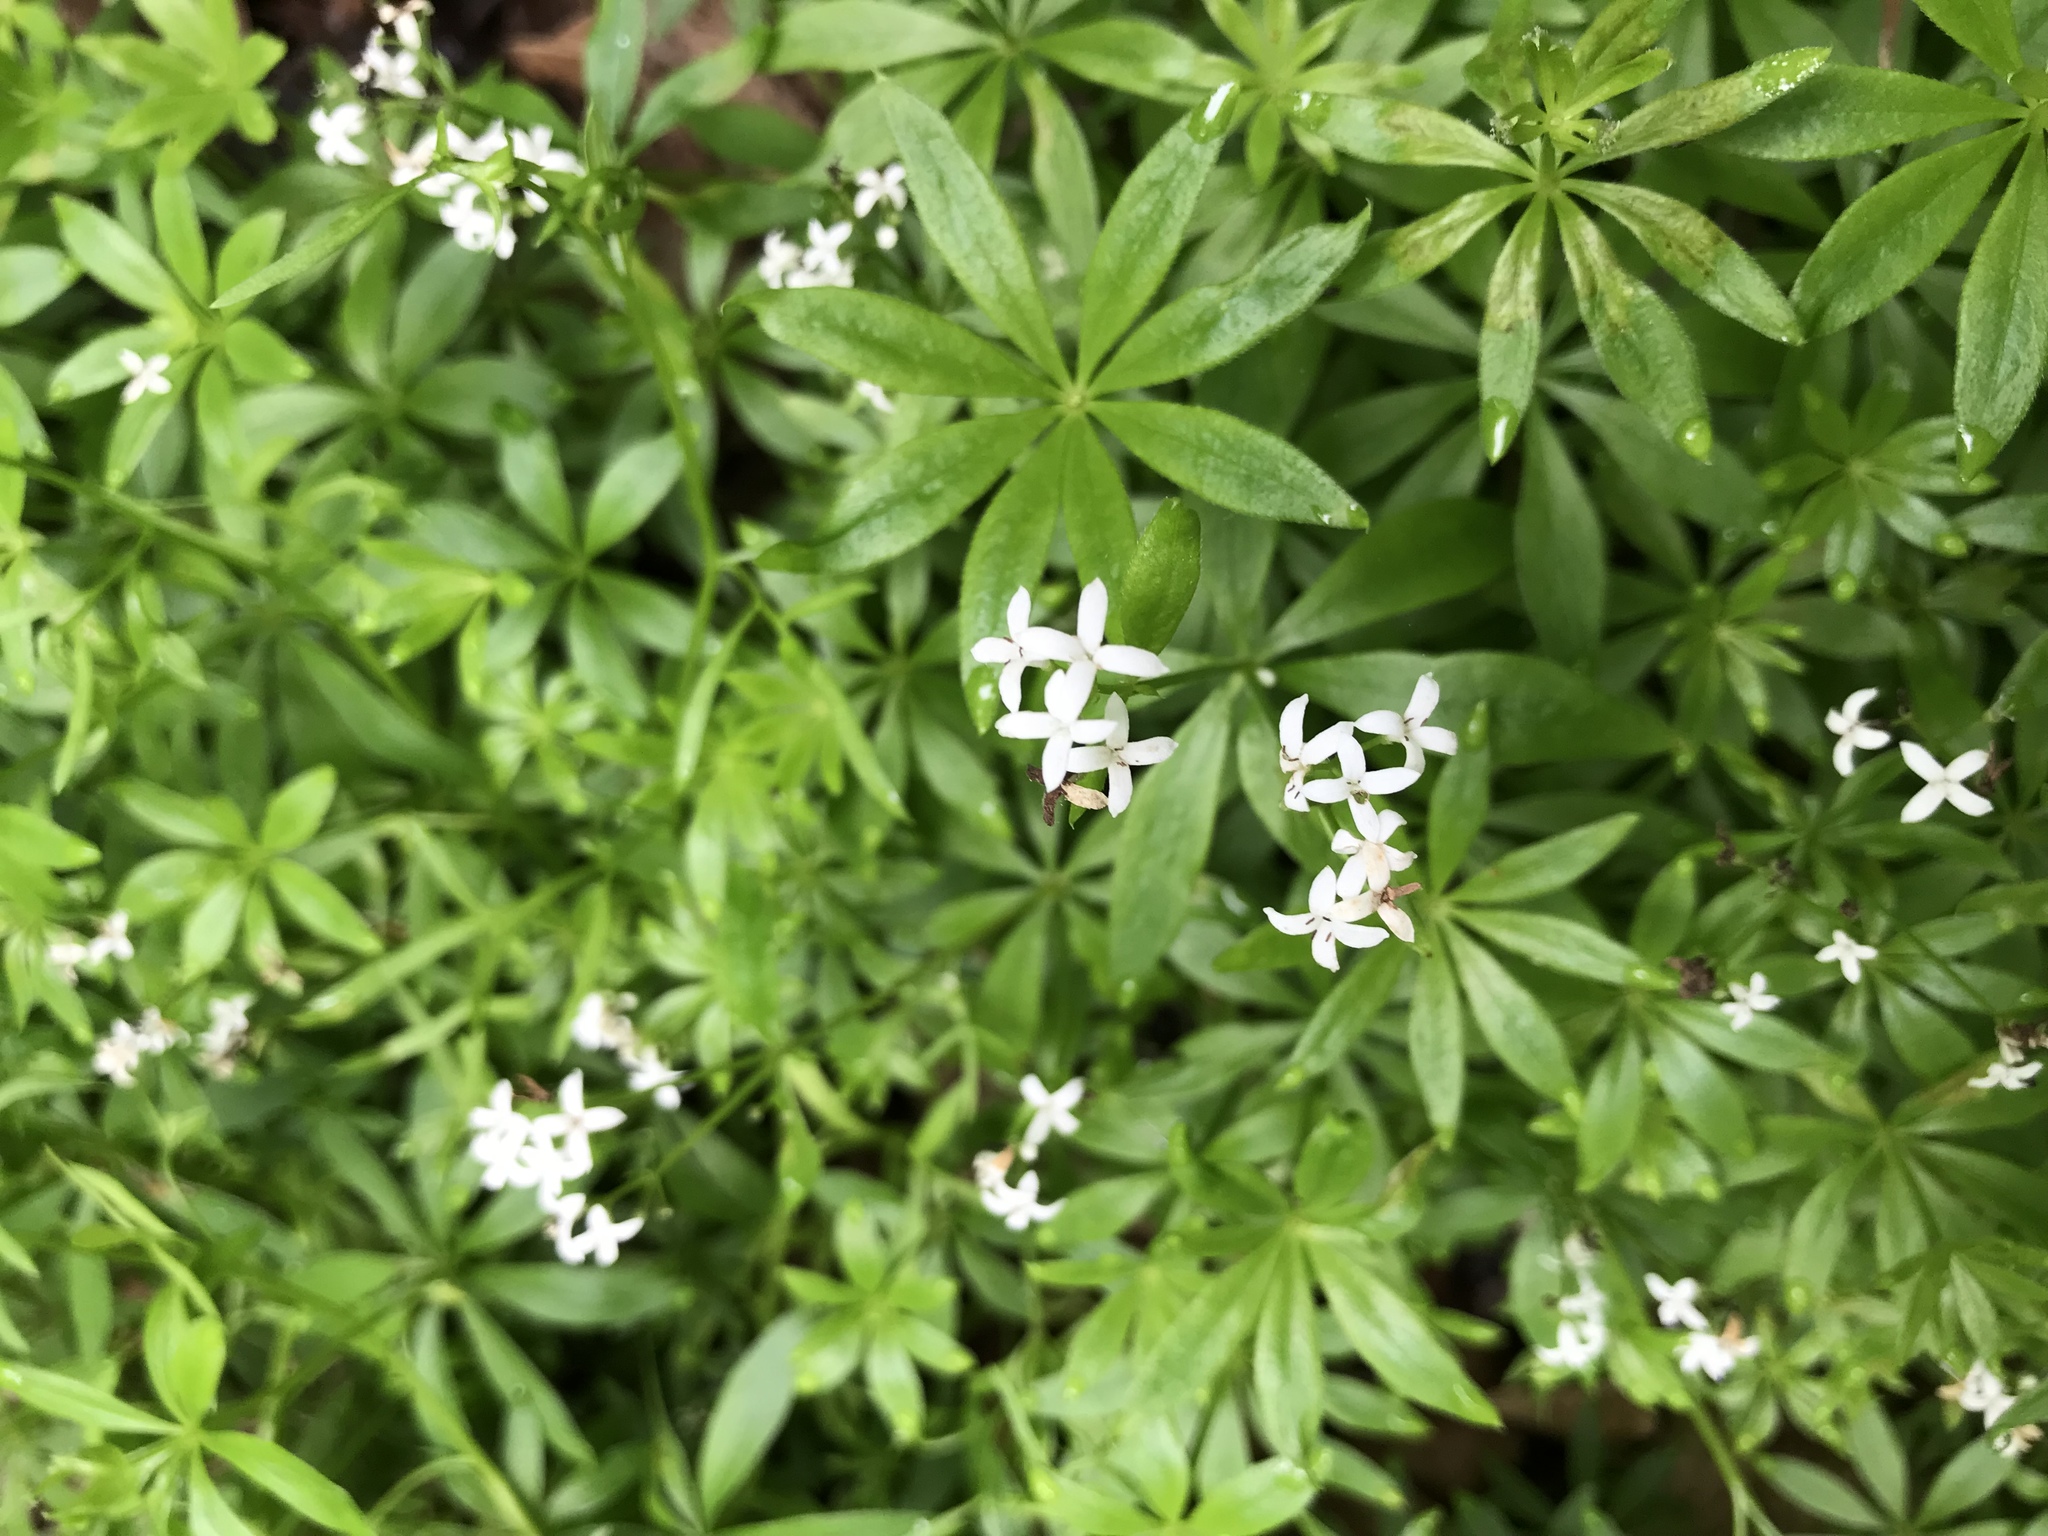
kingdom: Plantae
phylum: Tracheophyta
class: Magnoliopsida
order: Gentianales
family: Rubiaceae
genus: Galium
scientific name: Galium odoratum
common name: Sweet woodruff
